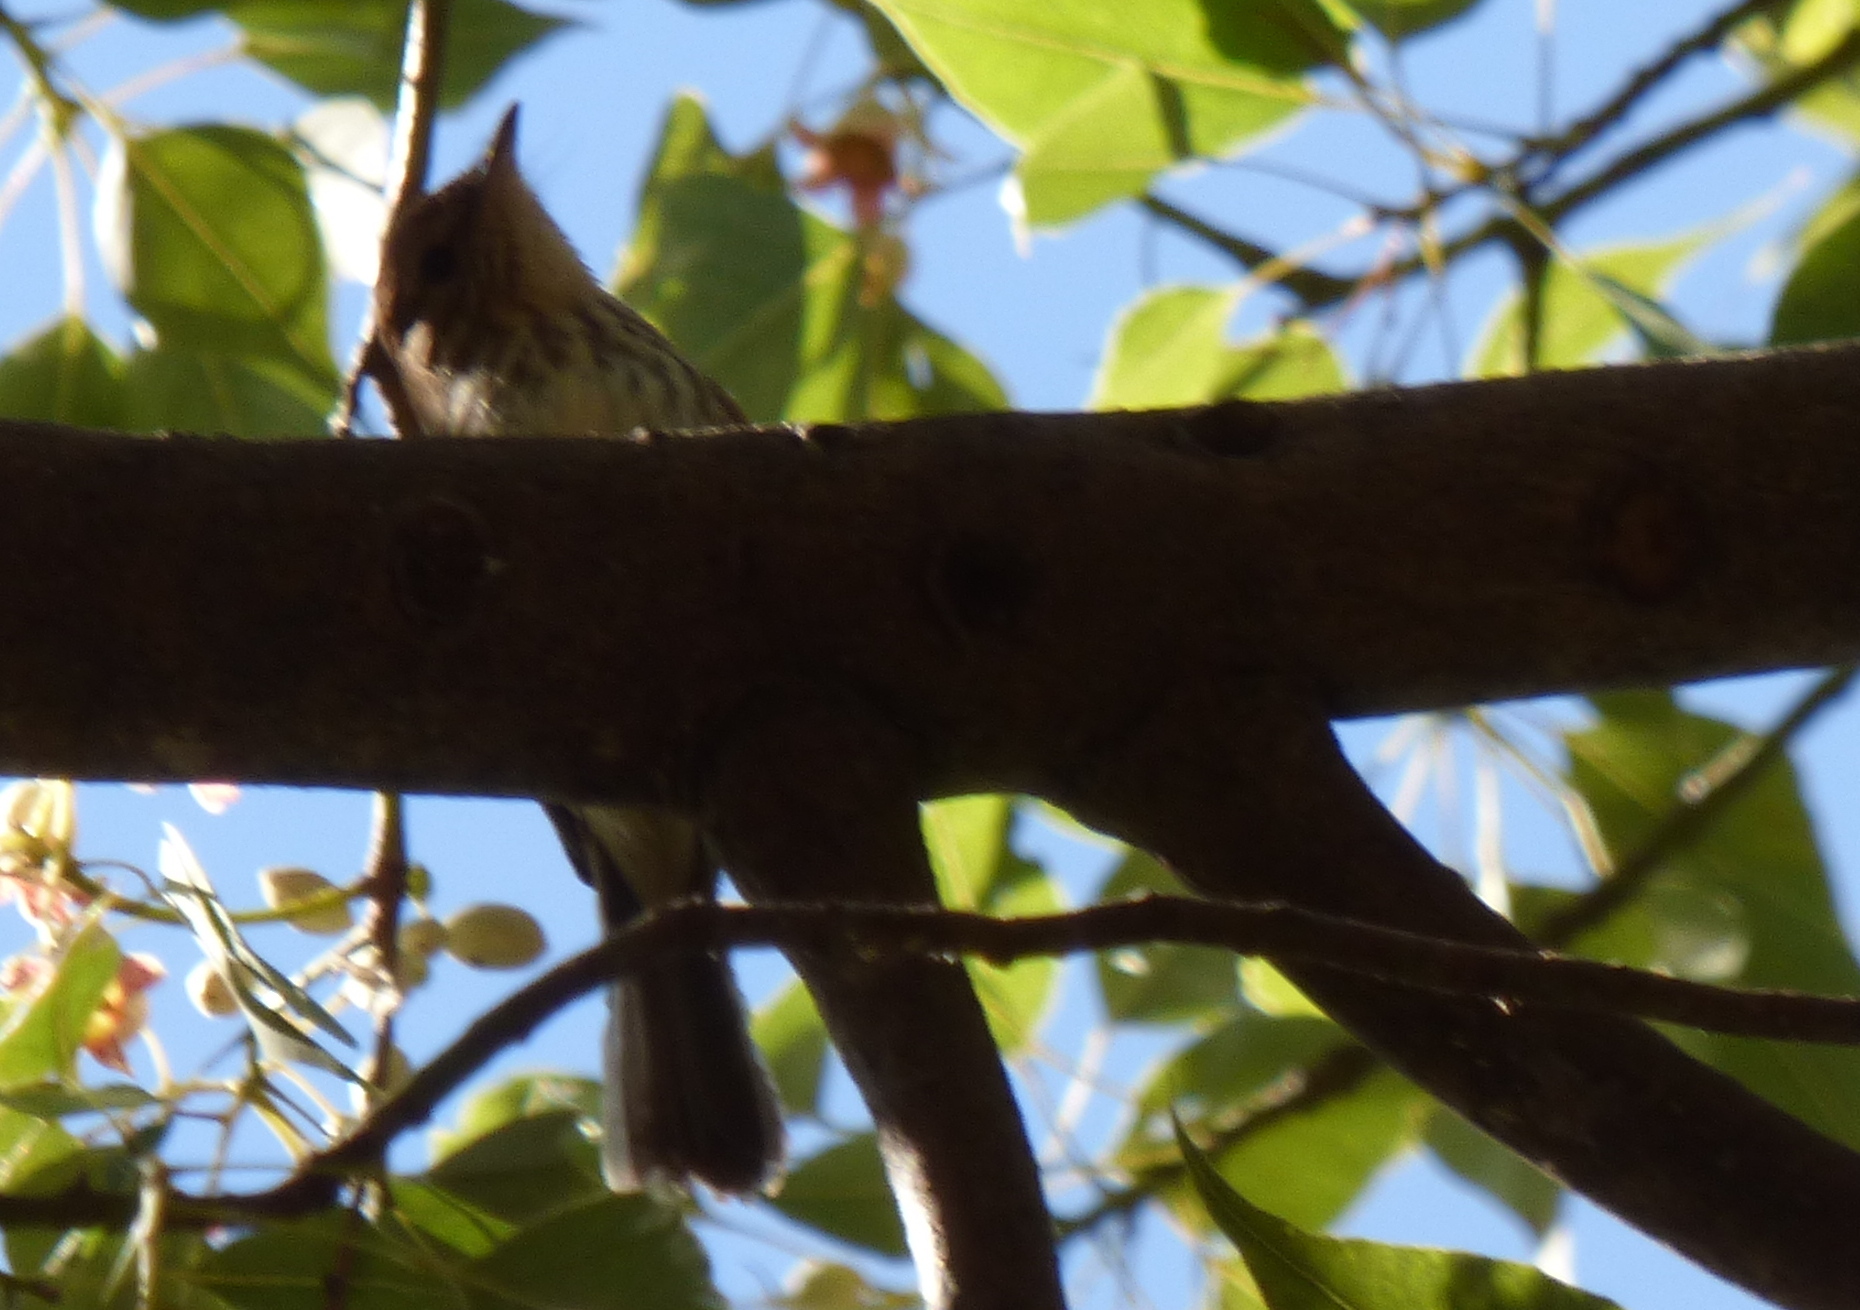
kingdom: Animalia
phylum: Chordata
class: Aves
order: Passeriformes
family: Tyrannidae
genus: Myiophobus
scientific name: Myiophobus fasciatus
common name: Bran-colored flycatcher
